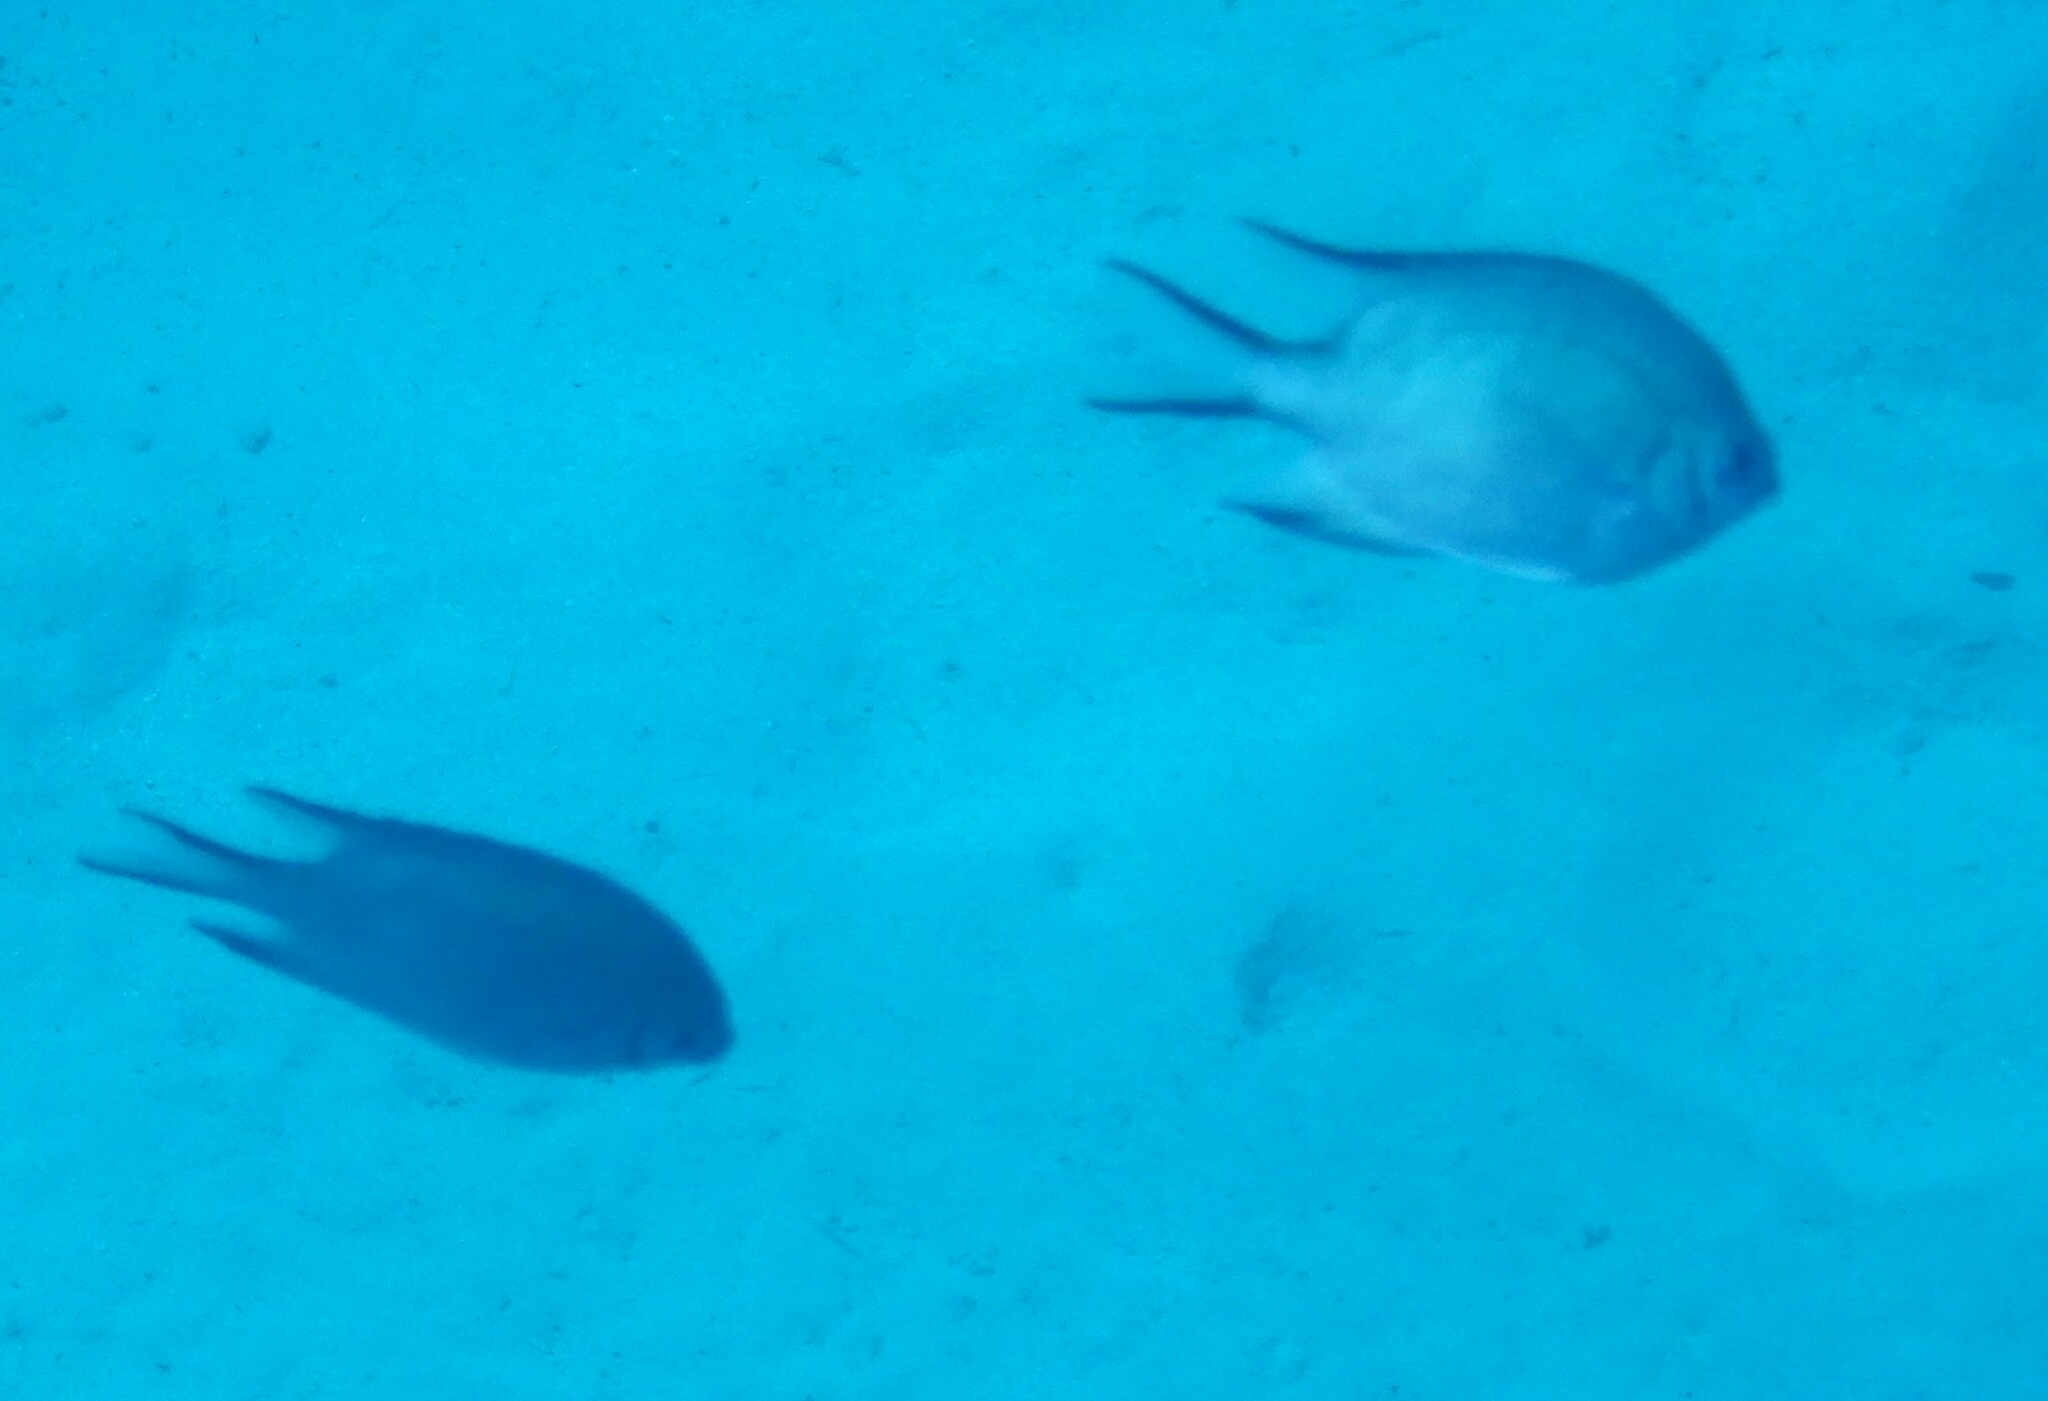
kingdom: Animalia
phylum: Chordata
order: Perciformes
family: Pomacentridae
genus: Amblyglyphidodon
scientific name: Amblyglyphidodon indicus
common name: Maldives damselfish
